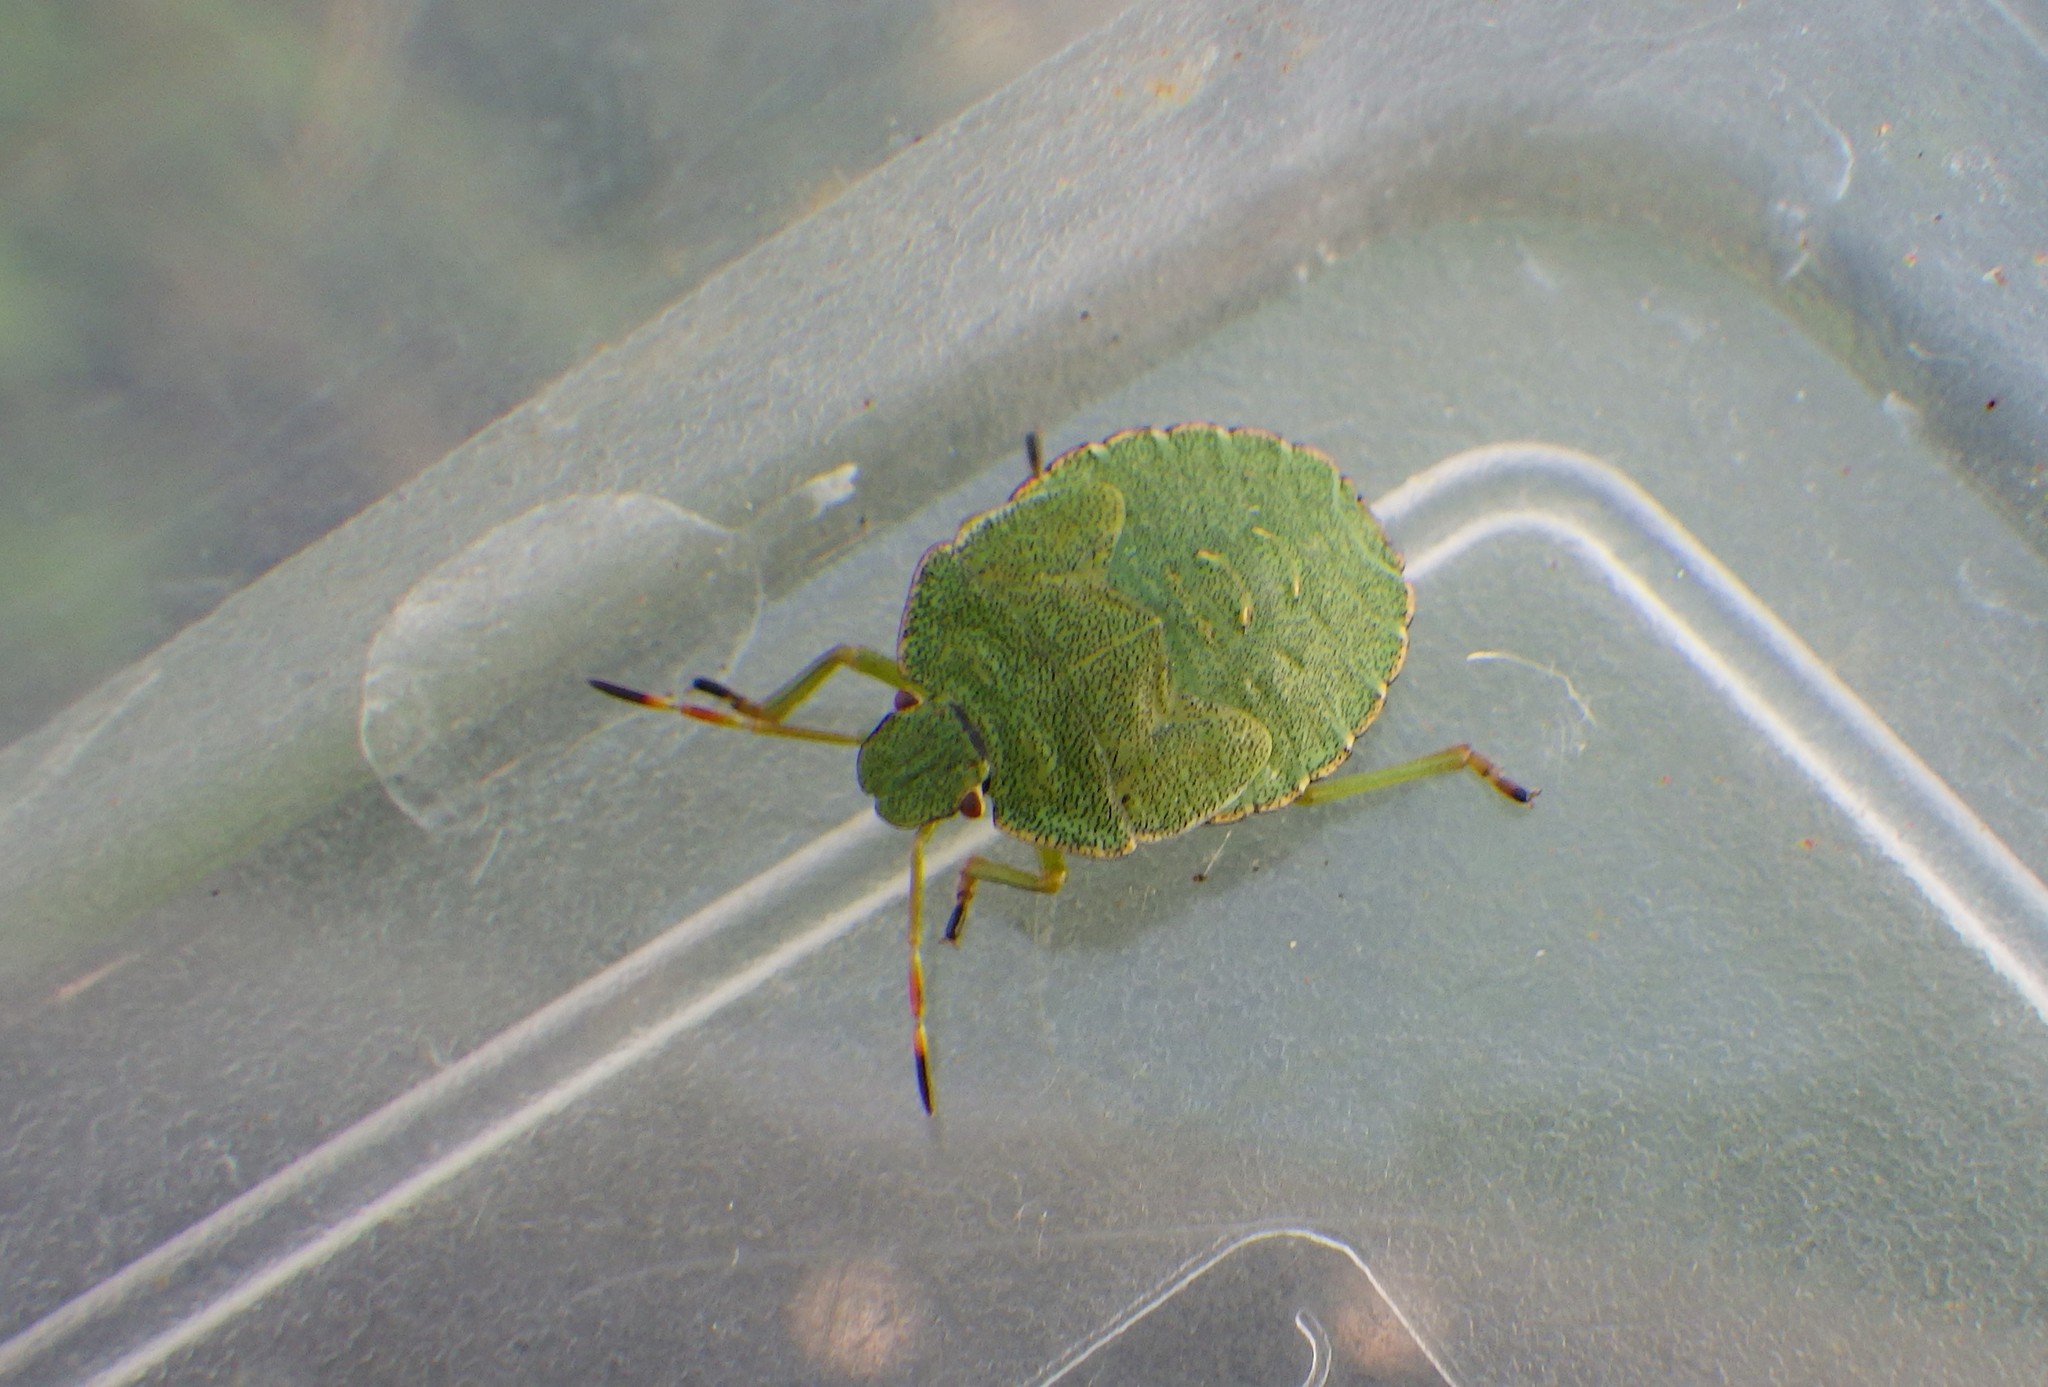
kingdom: Animalia
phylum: Arthropoda
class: Insecta
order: Hemiptera
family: Pentatomidae
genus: Palomena
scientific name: Palomena prasina
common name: Green shieldbug
